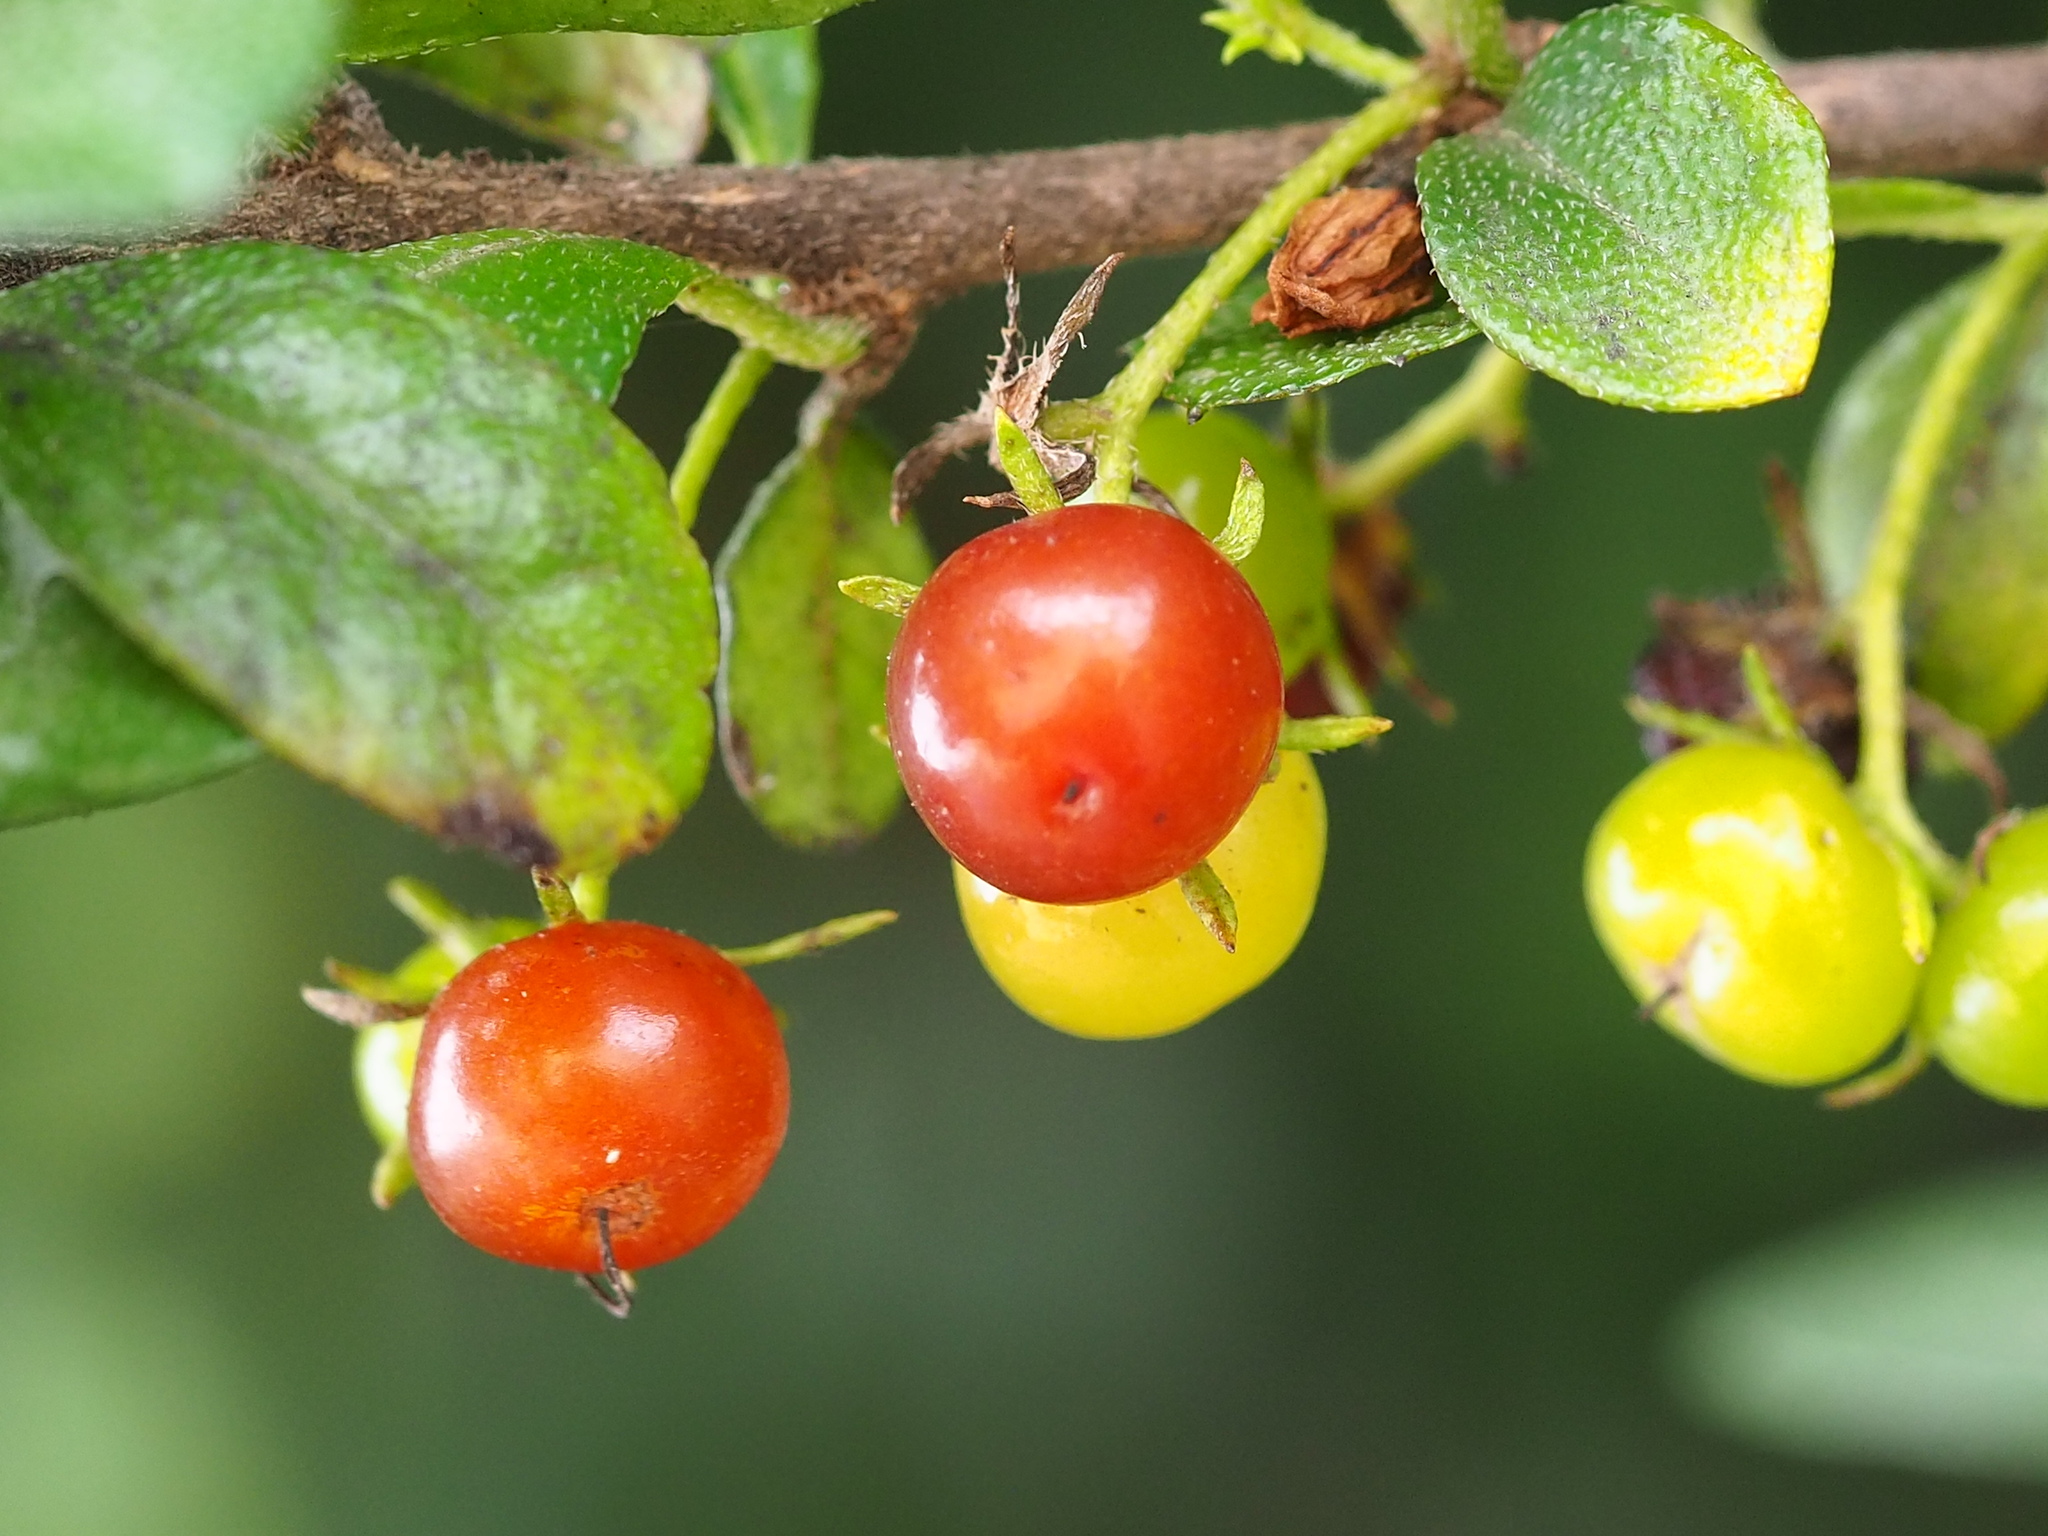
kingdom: Plantae
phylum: Tracheophyta
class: Magnoliopsida
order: Boraginales
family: Ehretiaceae
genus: Ehretia
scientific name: Ehretia microphylla
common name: Fukien-tea
